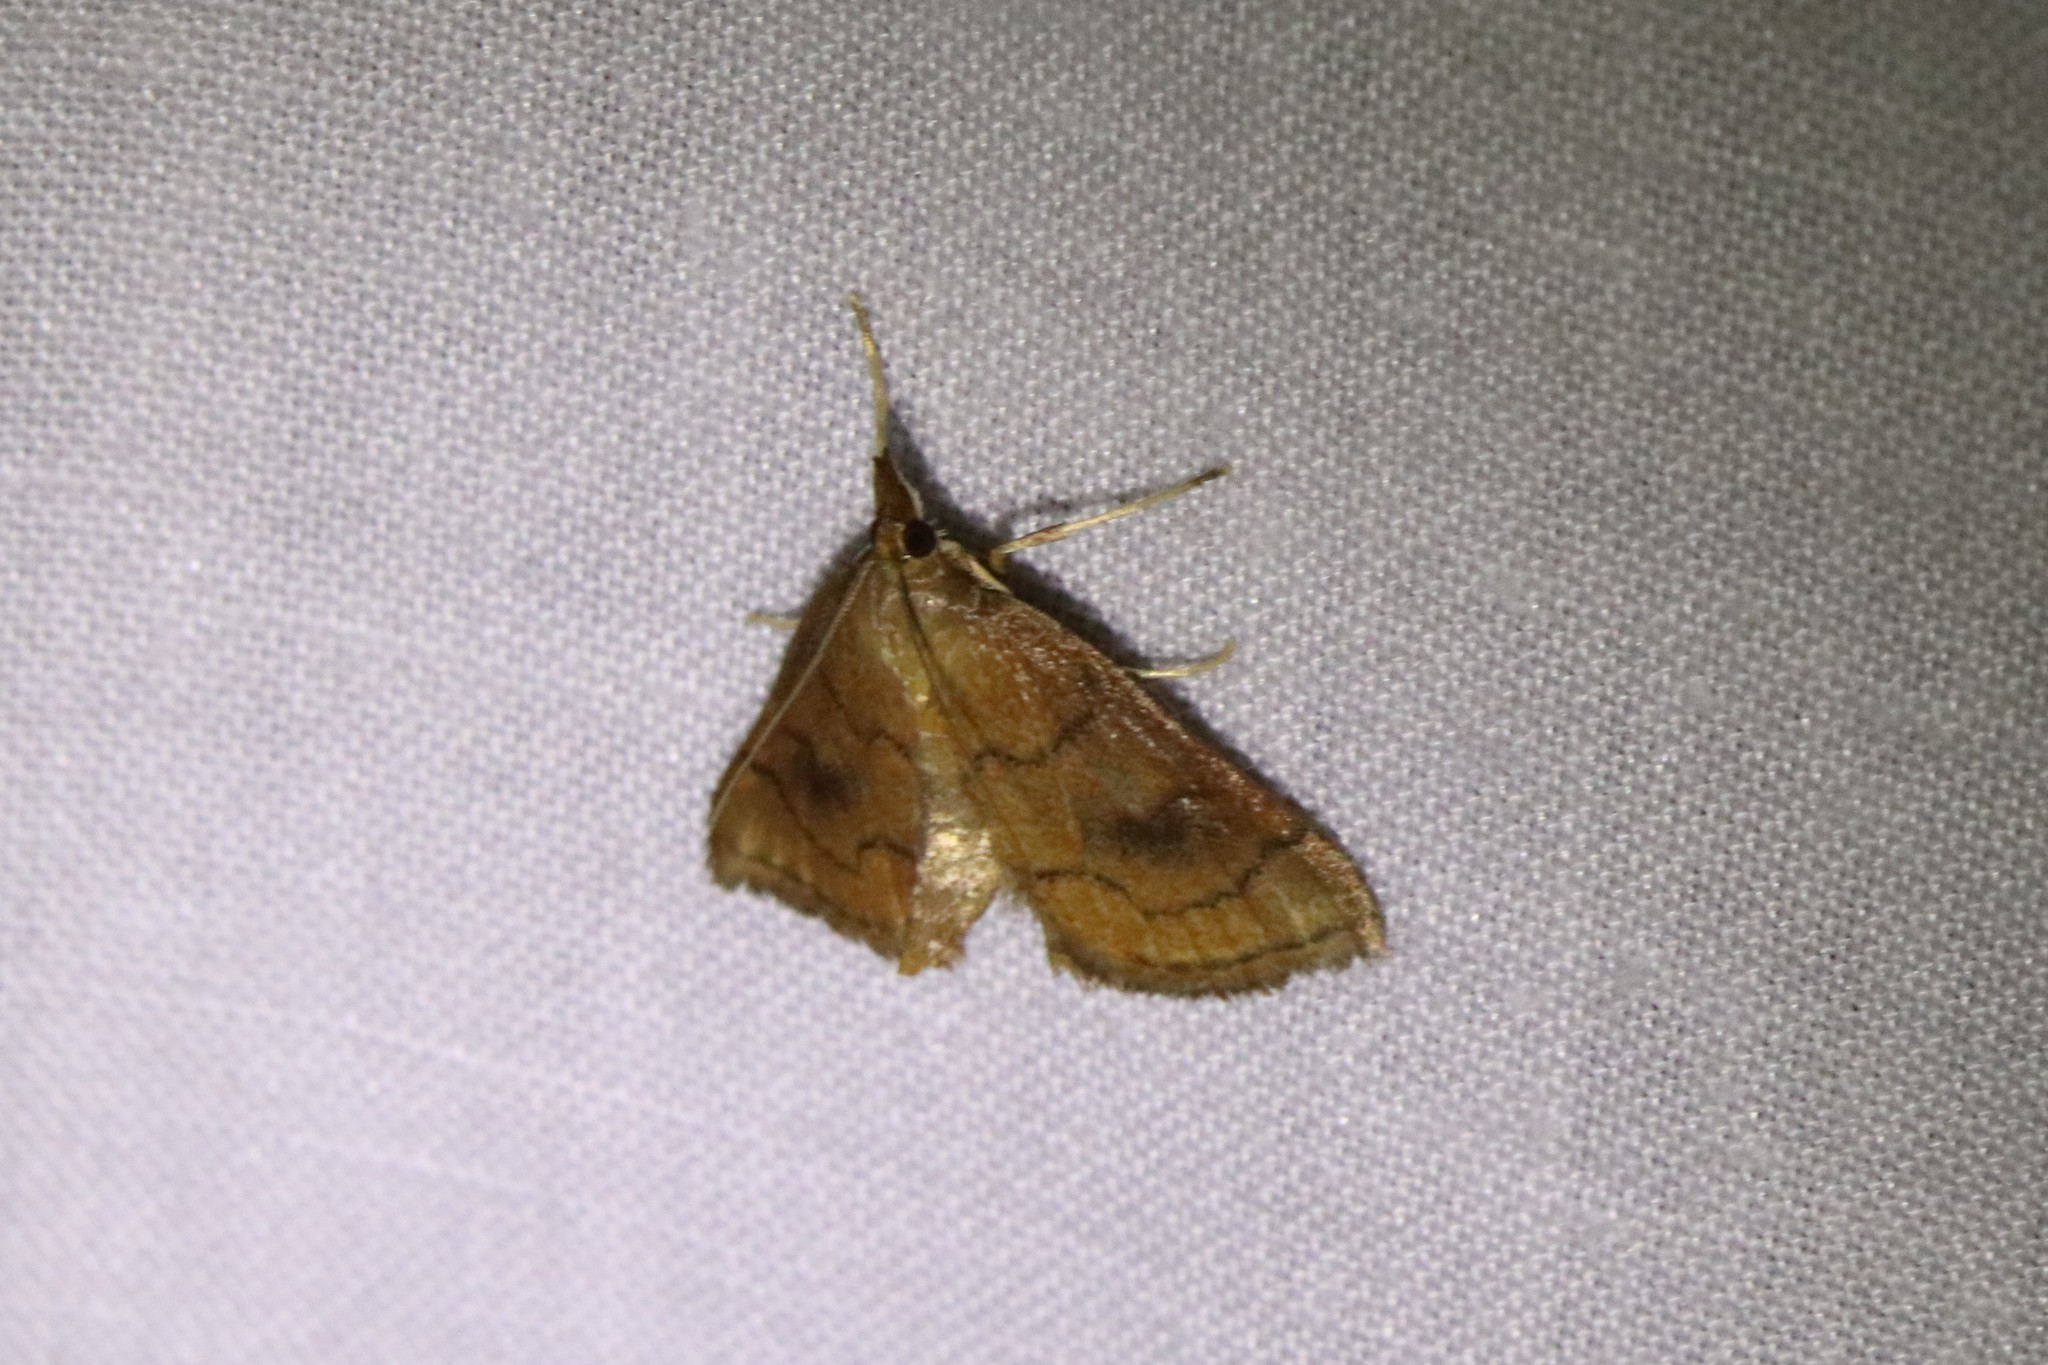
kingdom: Animalia
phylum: Arthropoda
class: Insecta
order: Lepidoptera
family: Crambidae
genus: Fumibotys
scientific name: Fumibotys fumalis
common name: Mint root borer moth
